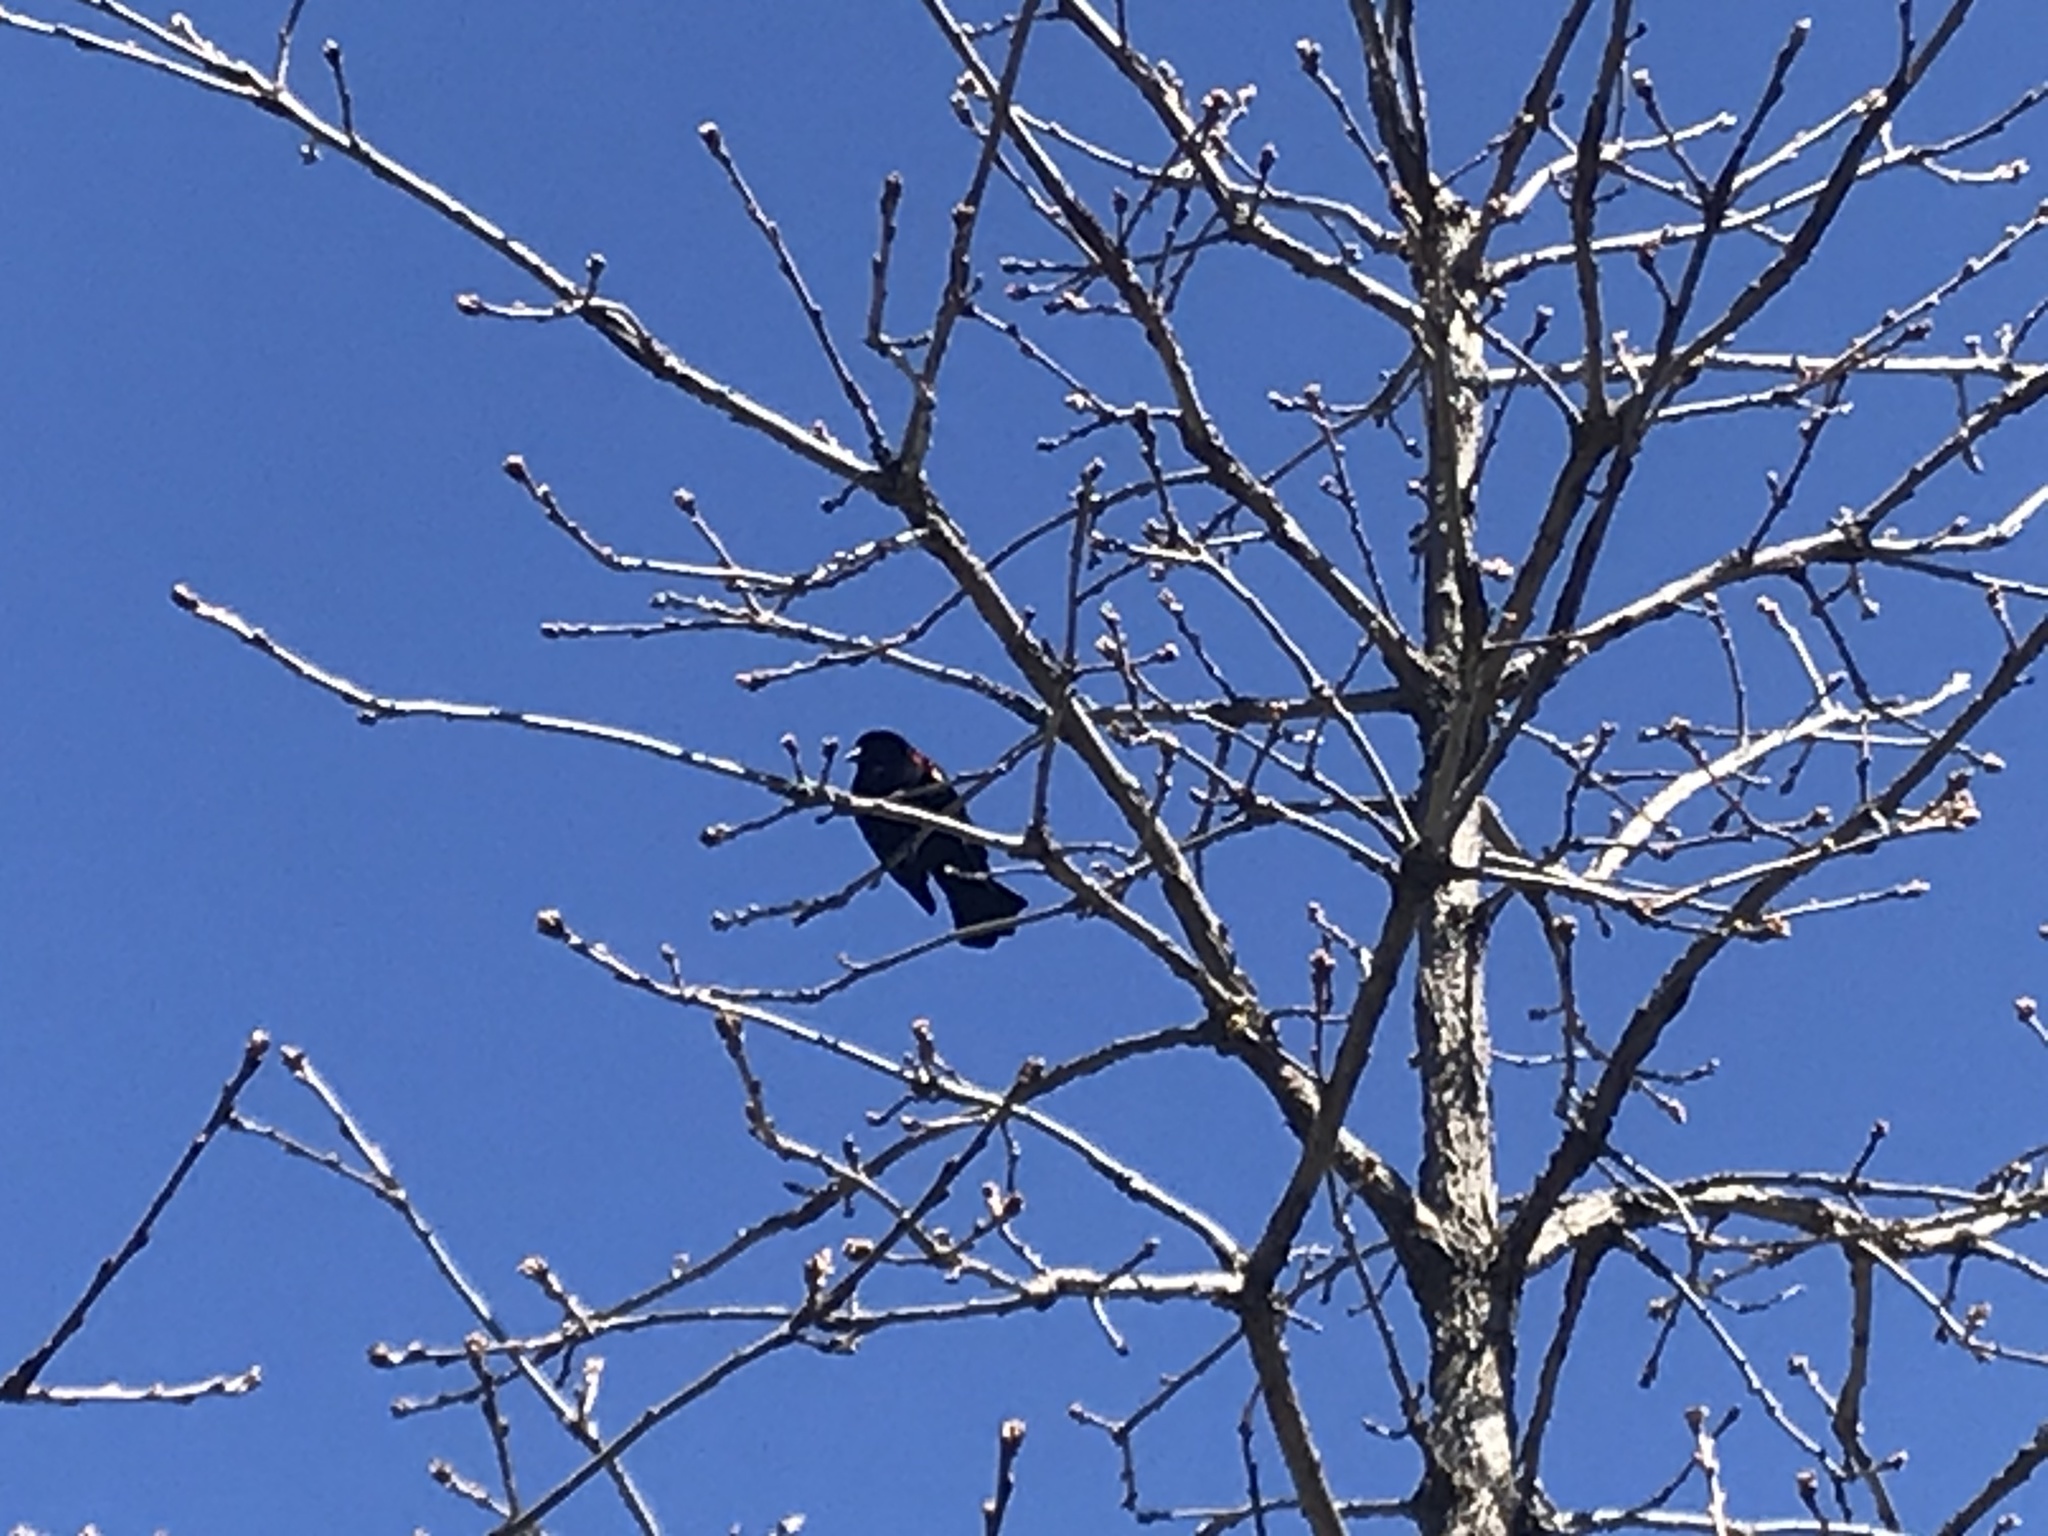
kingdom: Animalia
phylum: Chordata
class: Aves
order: Passeriformes
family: Icteridae
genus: Agelaius
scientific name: Agelaius phoeniceus
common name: Red-winged blackbird
